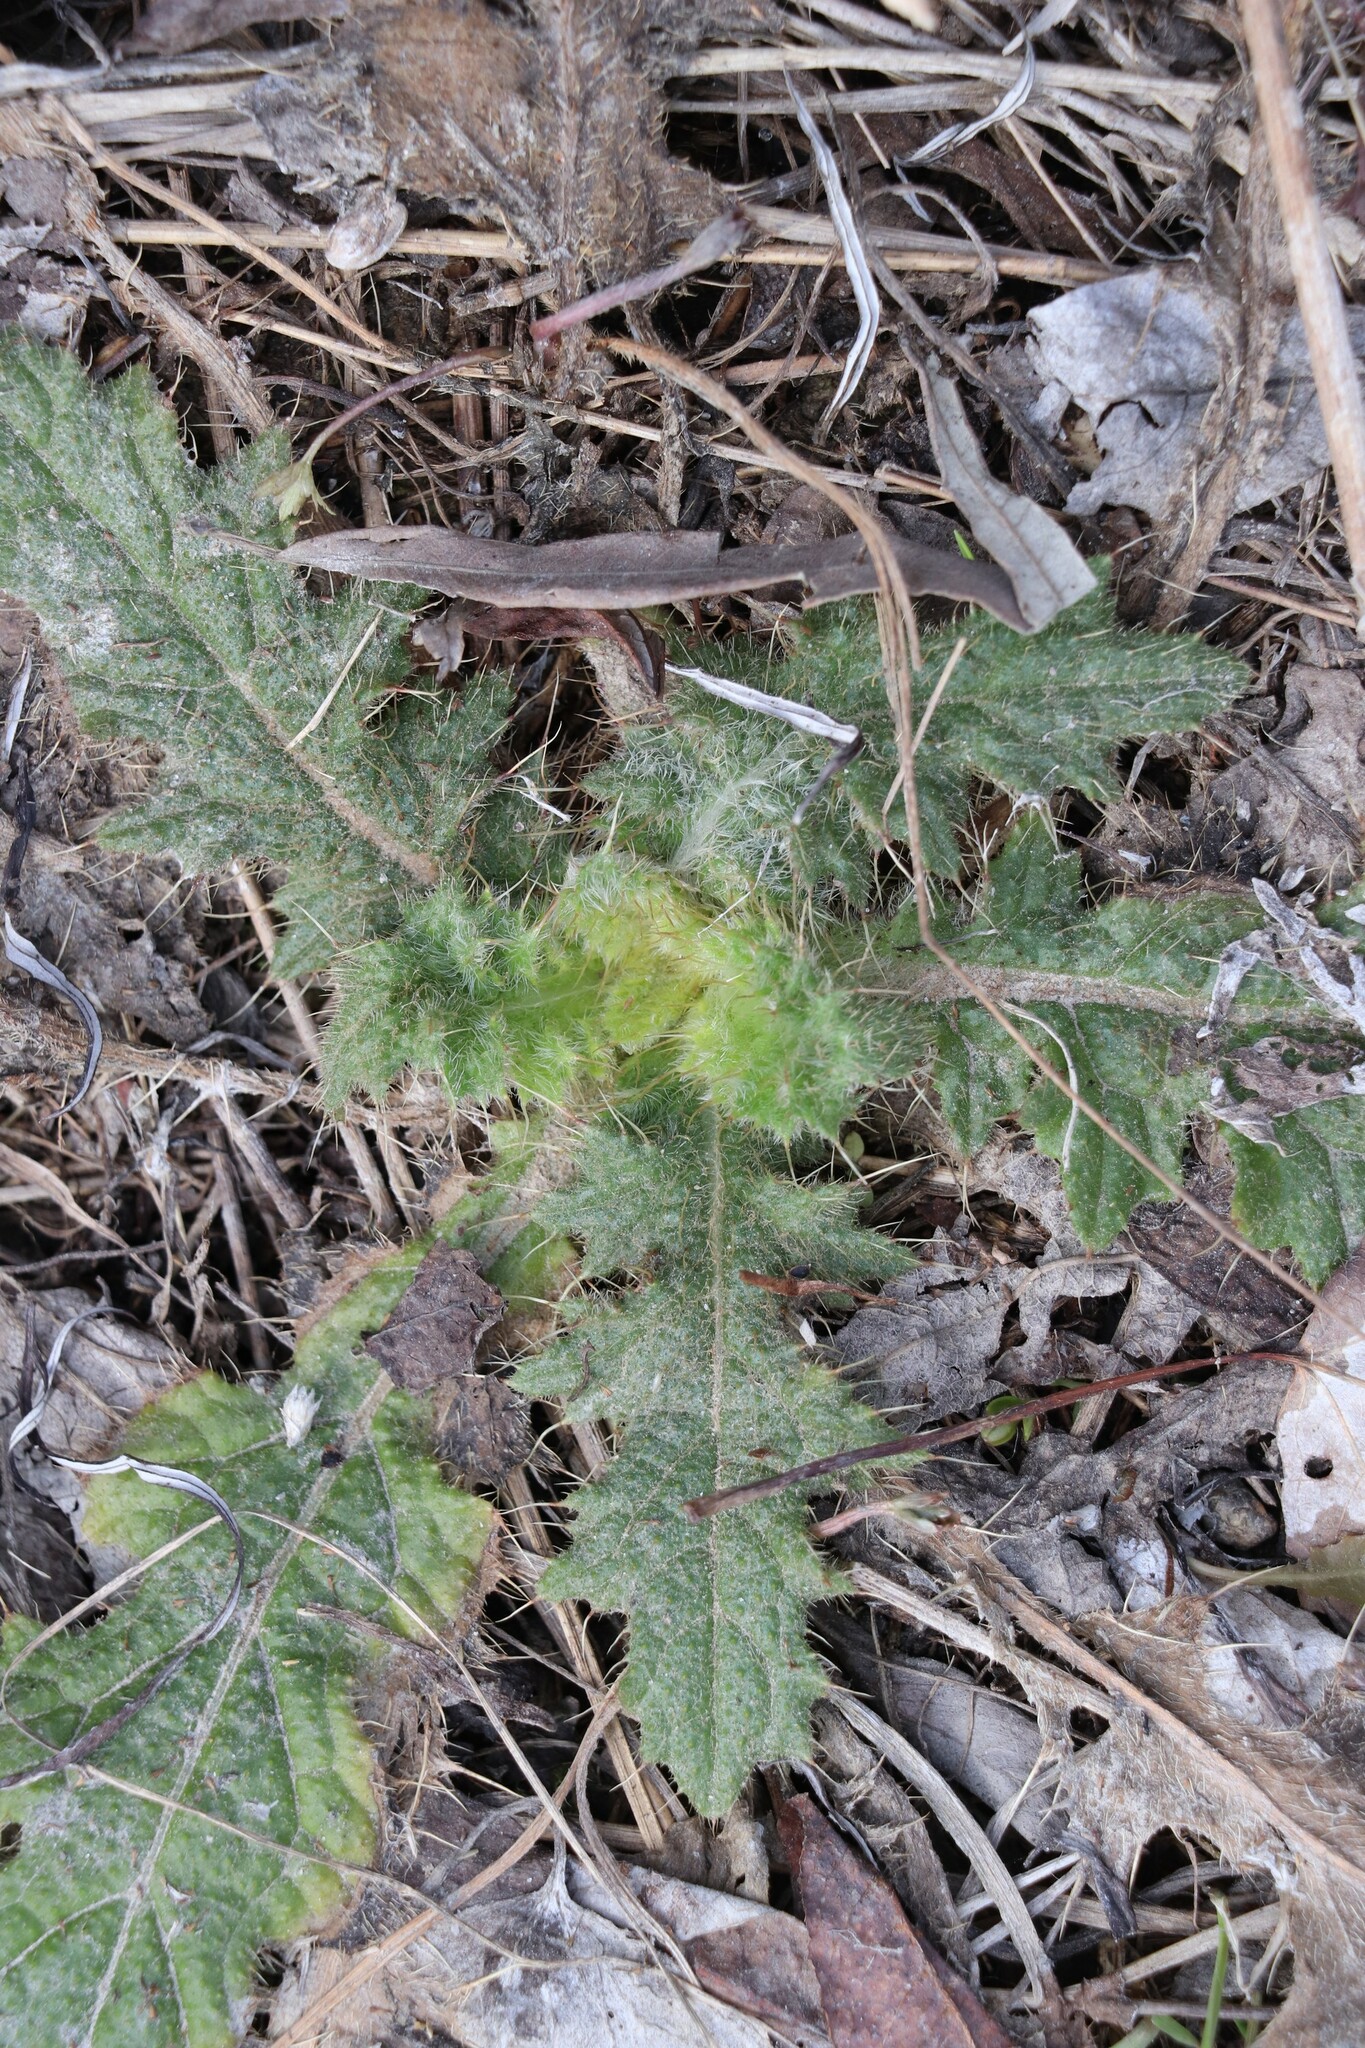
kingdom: Plantae
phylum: Tracheophyta
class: Magnoliopsida
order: Asterales
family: Asteraceae
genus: Cirsium
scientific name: Cirsium vulgare
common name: Bull thistle
